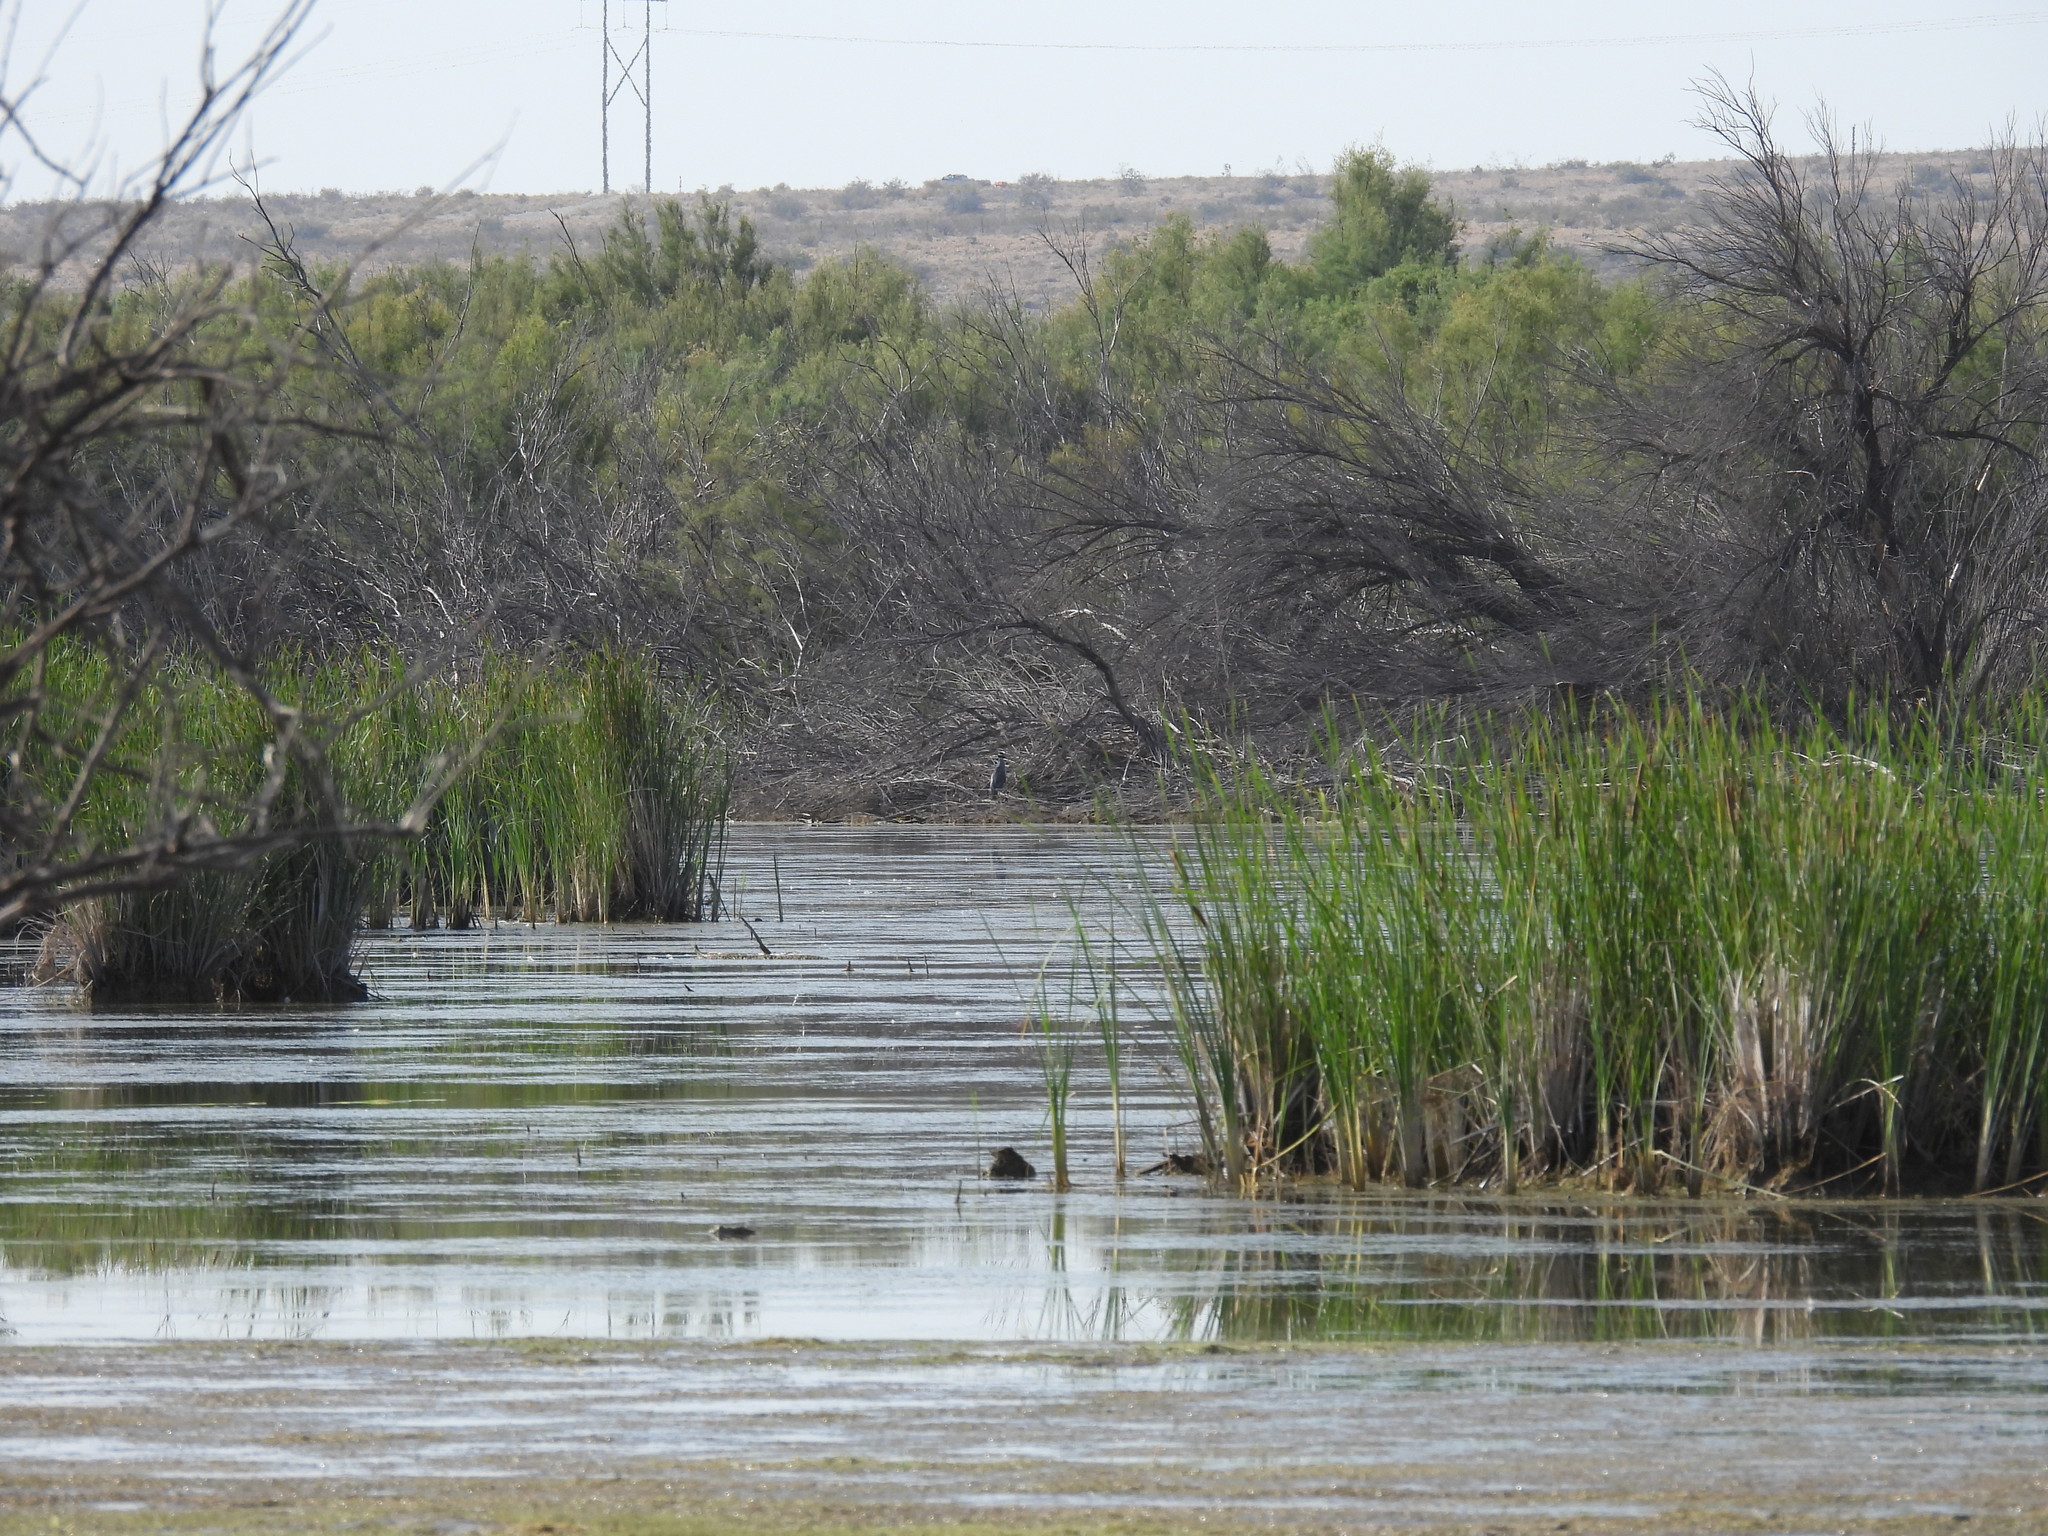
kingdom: Animalia
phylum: Chordata
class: Aves
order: Pelecaniformes
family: Ardeidae
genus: Nyctanassa
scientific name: Nyctanassa violacea
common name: Yellow-crowned night heron
